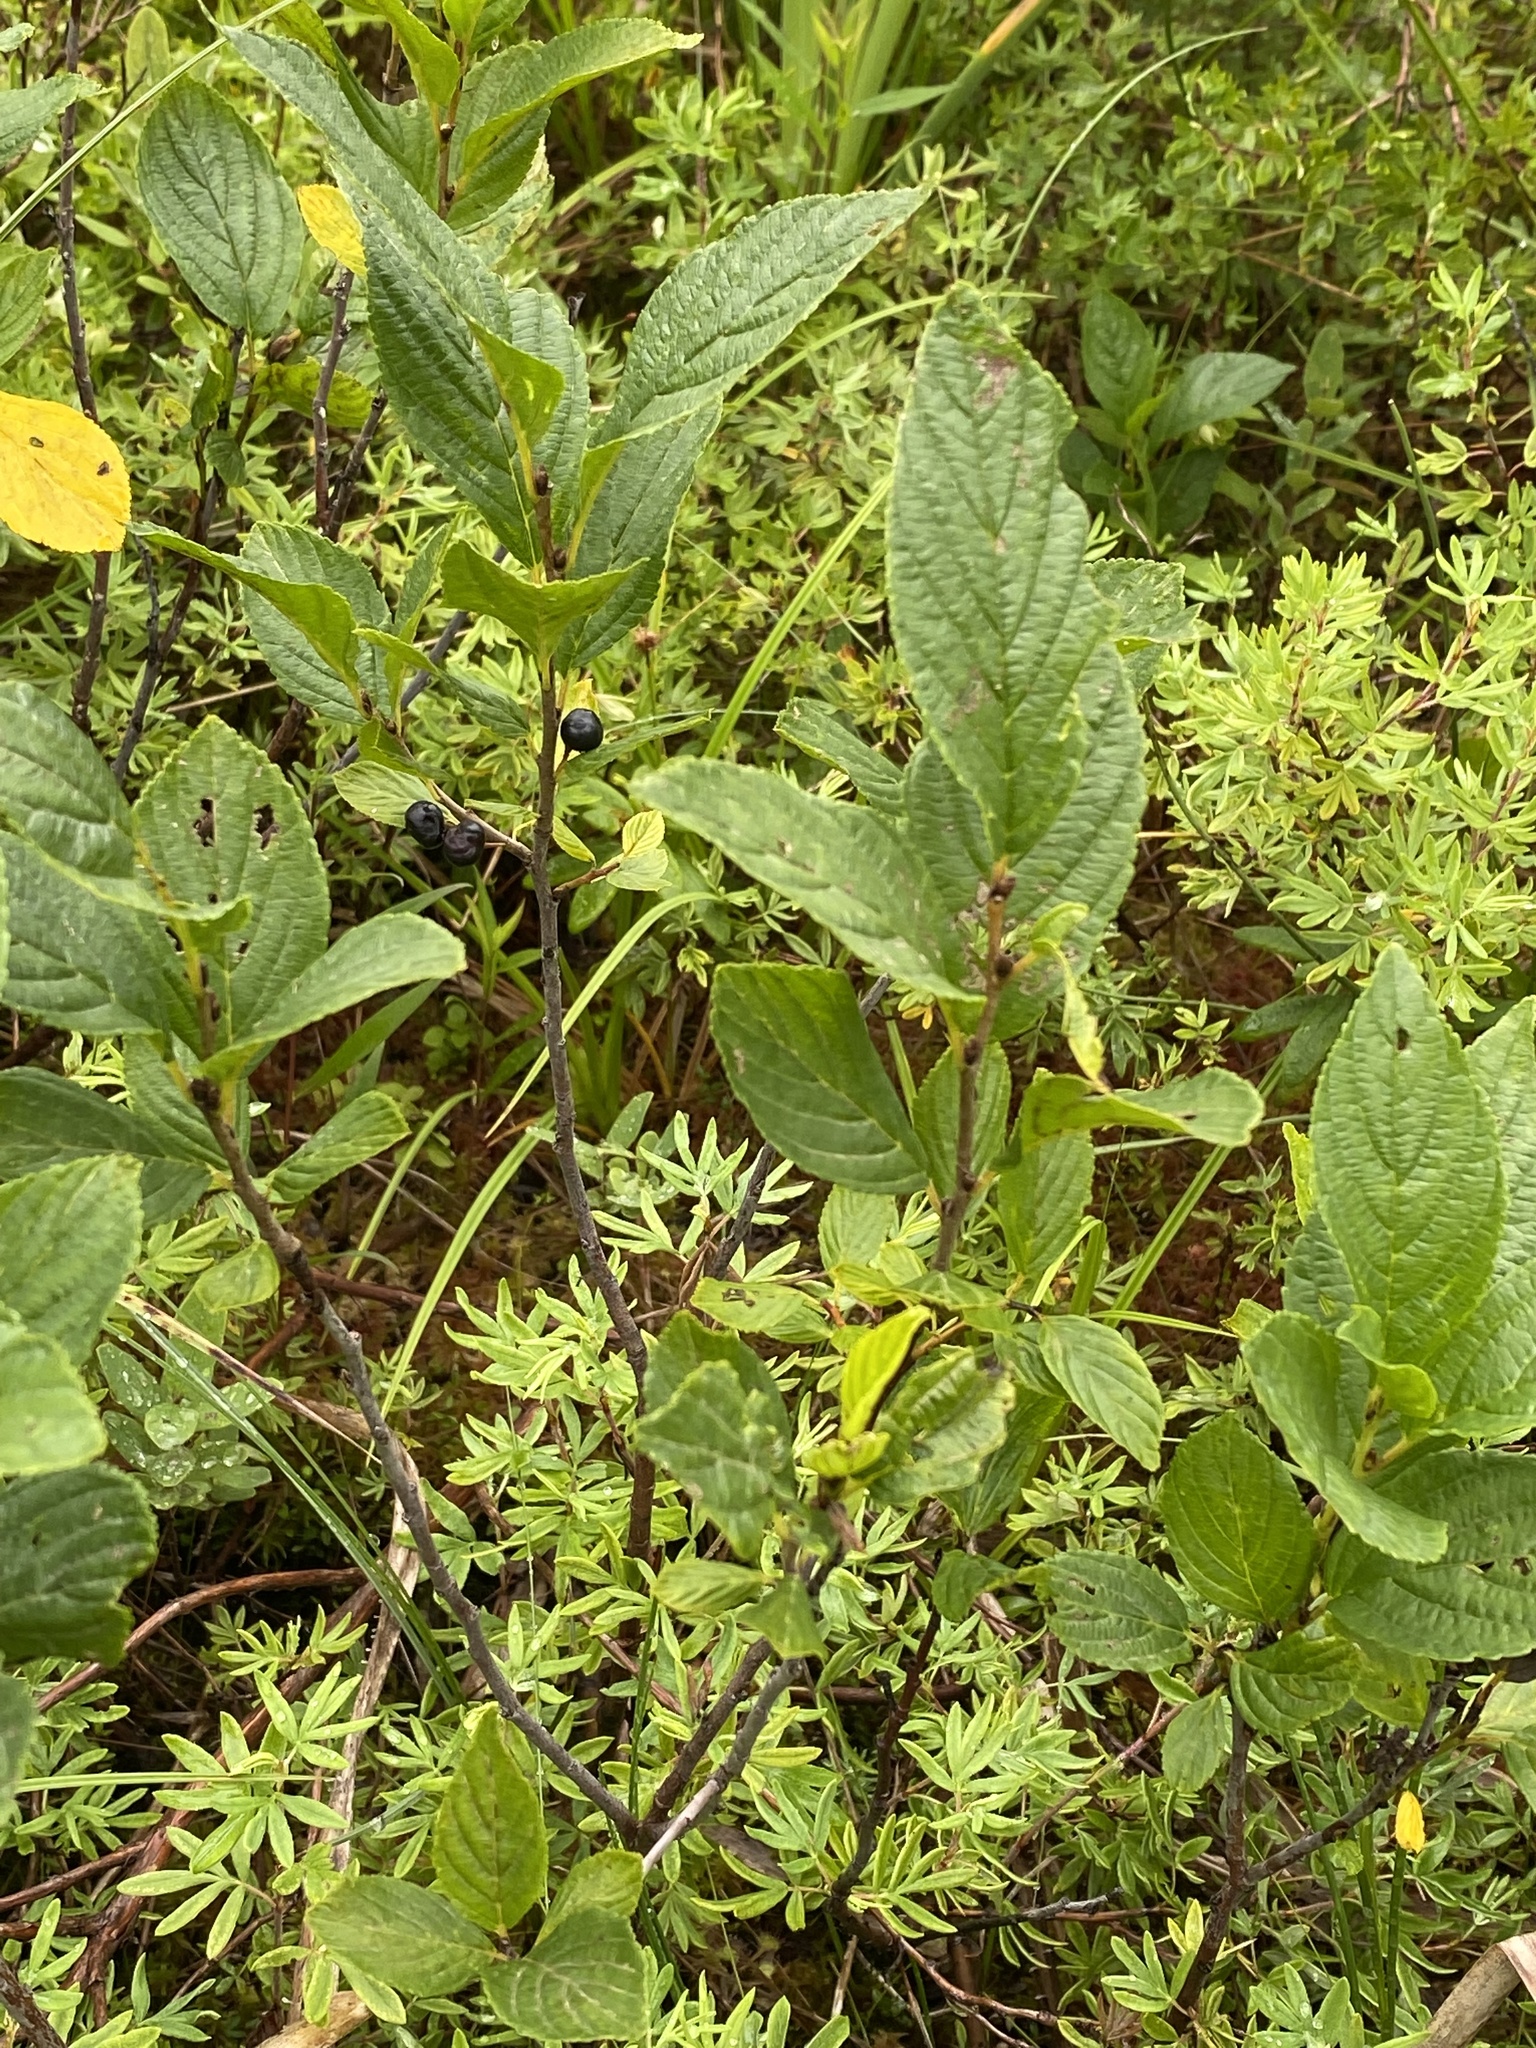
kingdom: Plantae
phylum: Tracheophyta
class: Magnoliopsida
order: Rosales
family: Rhamnaceae
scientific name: Rhamnaceae
